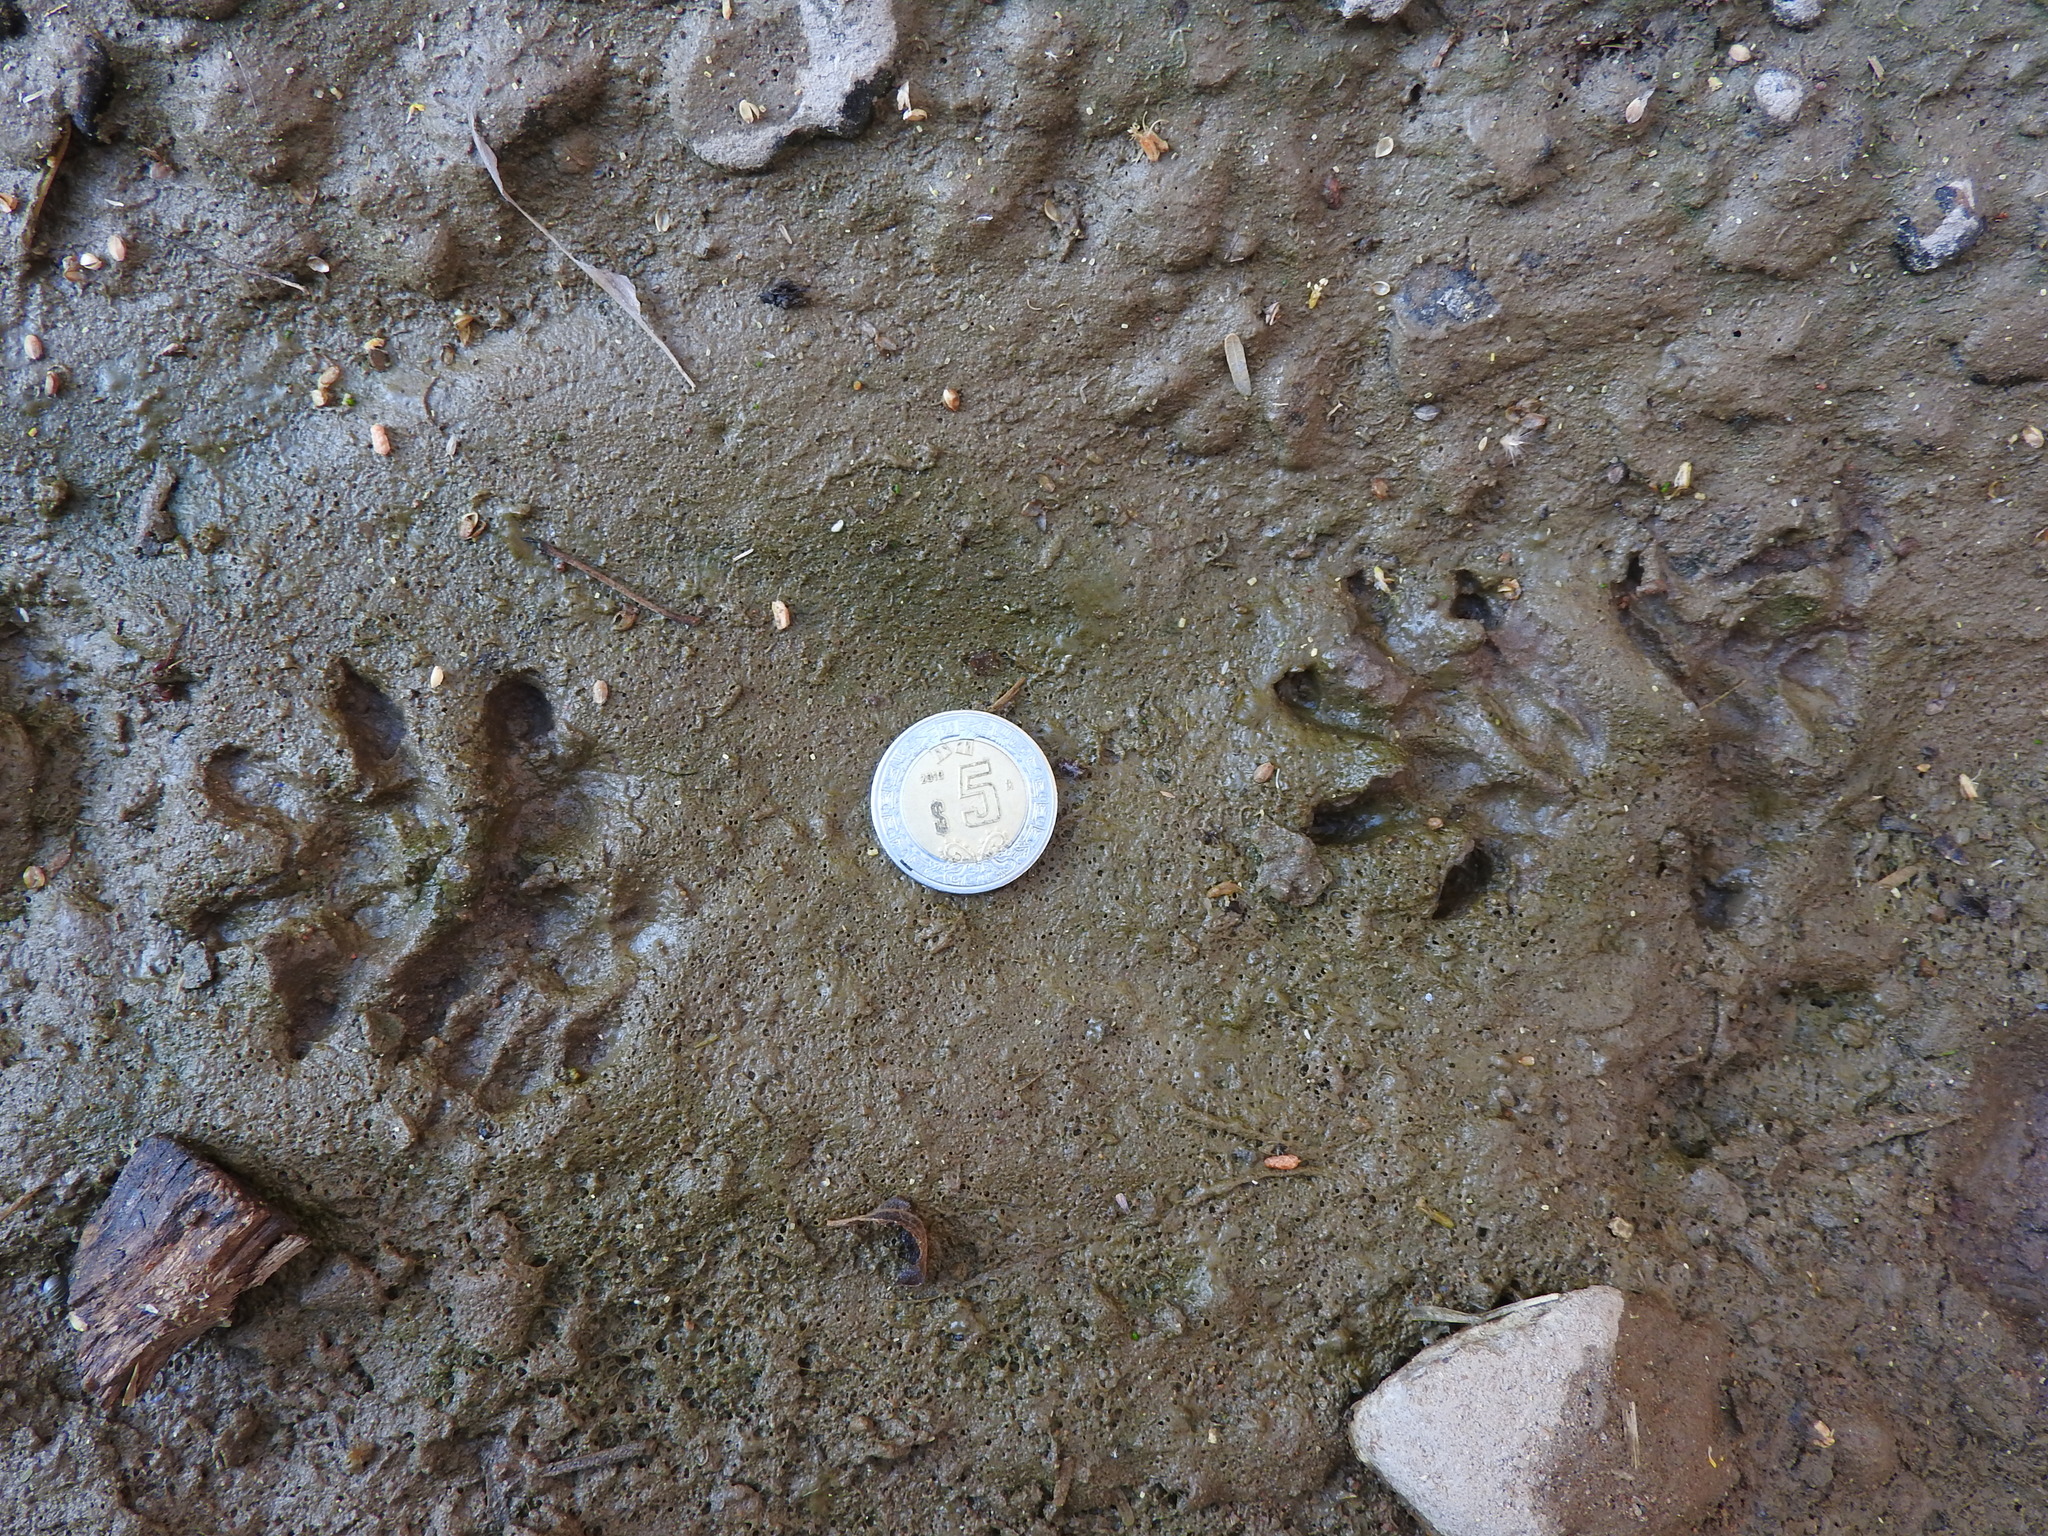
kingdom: Animalia
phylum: Chordata
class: Mammalia
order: Didelphimorphia
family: Didelphidae
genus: Didelphis
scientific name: Didelphis virginiana
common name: Virginia opossum
